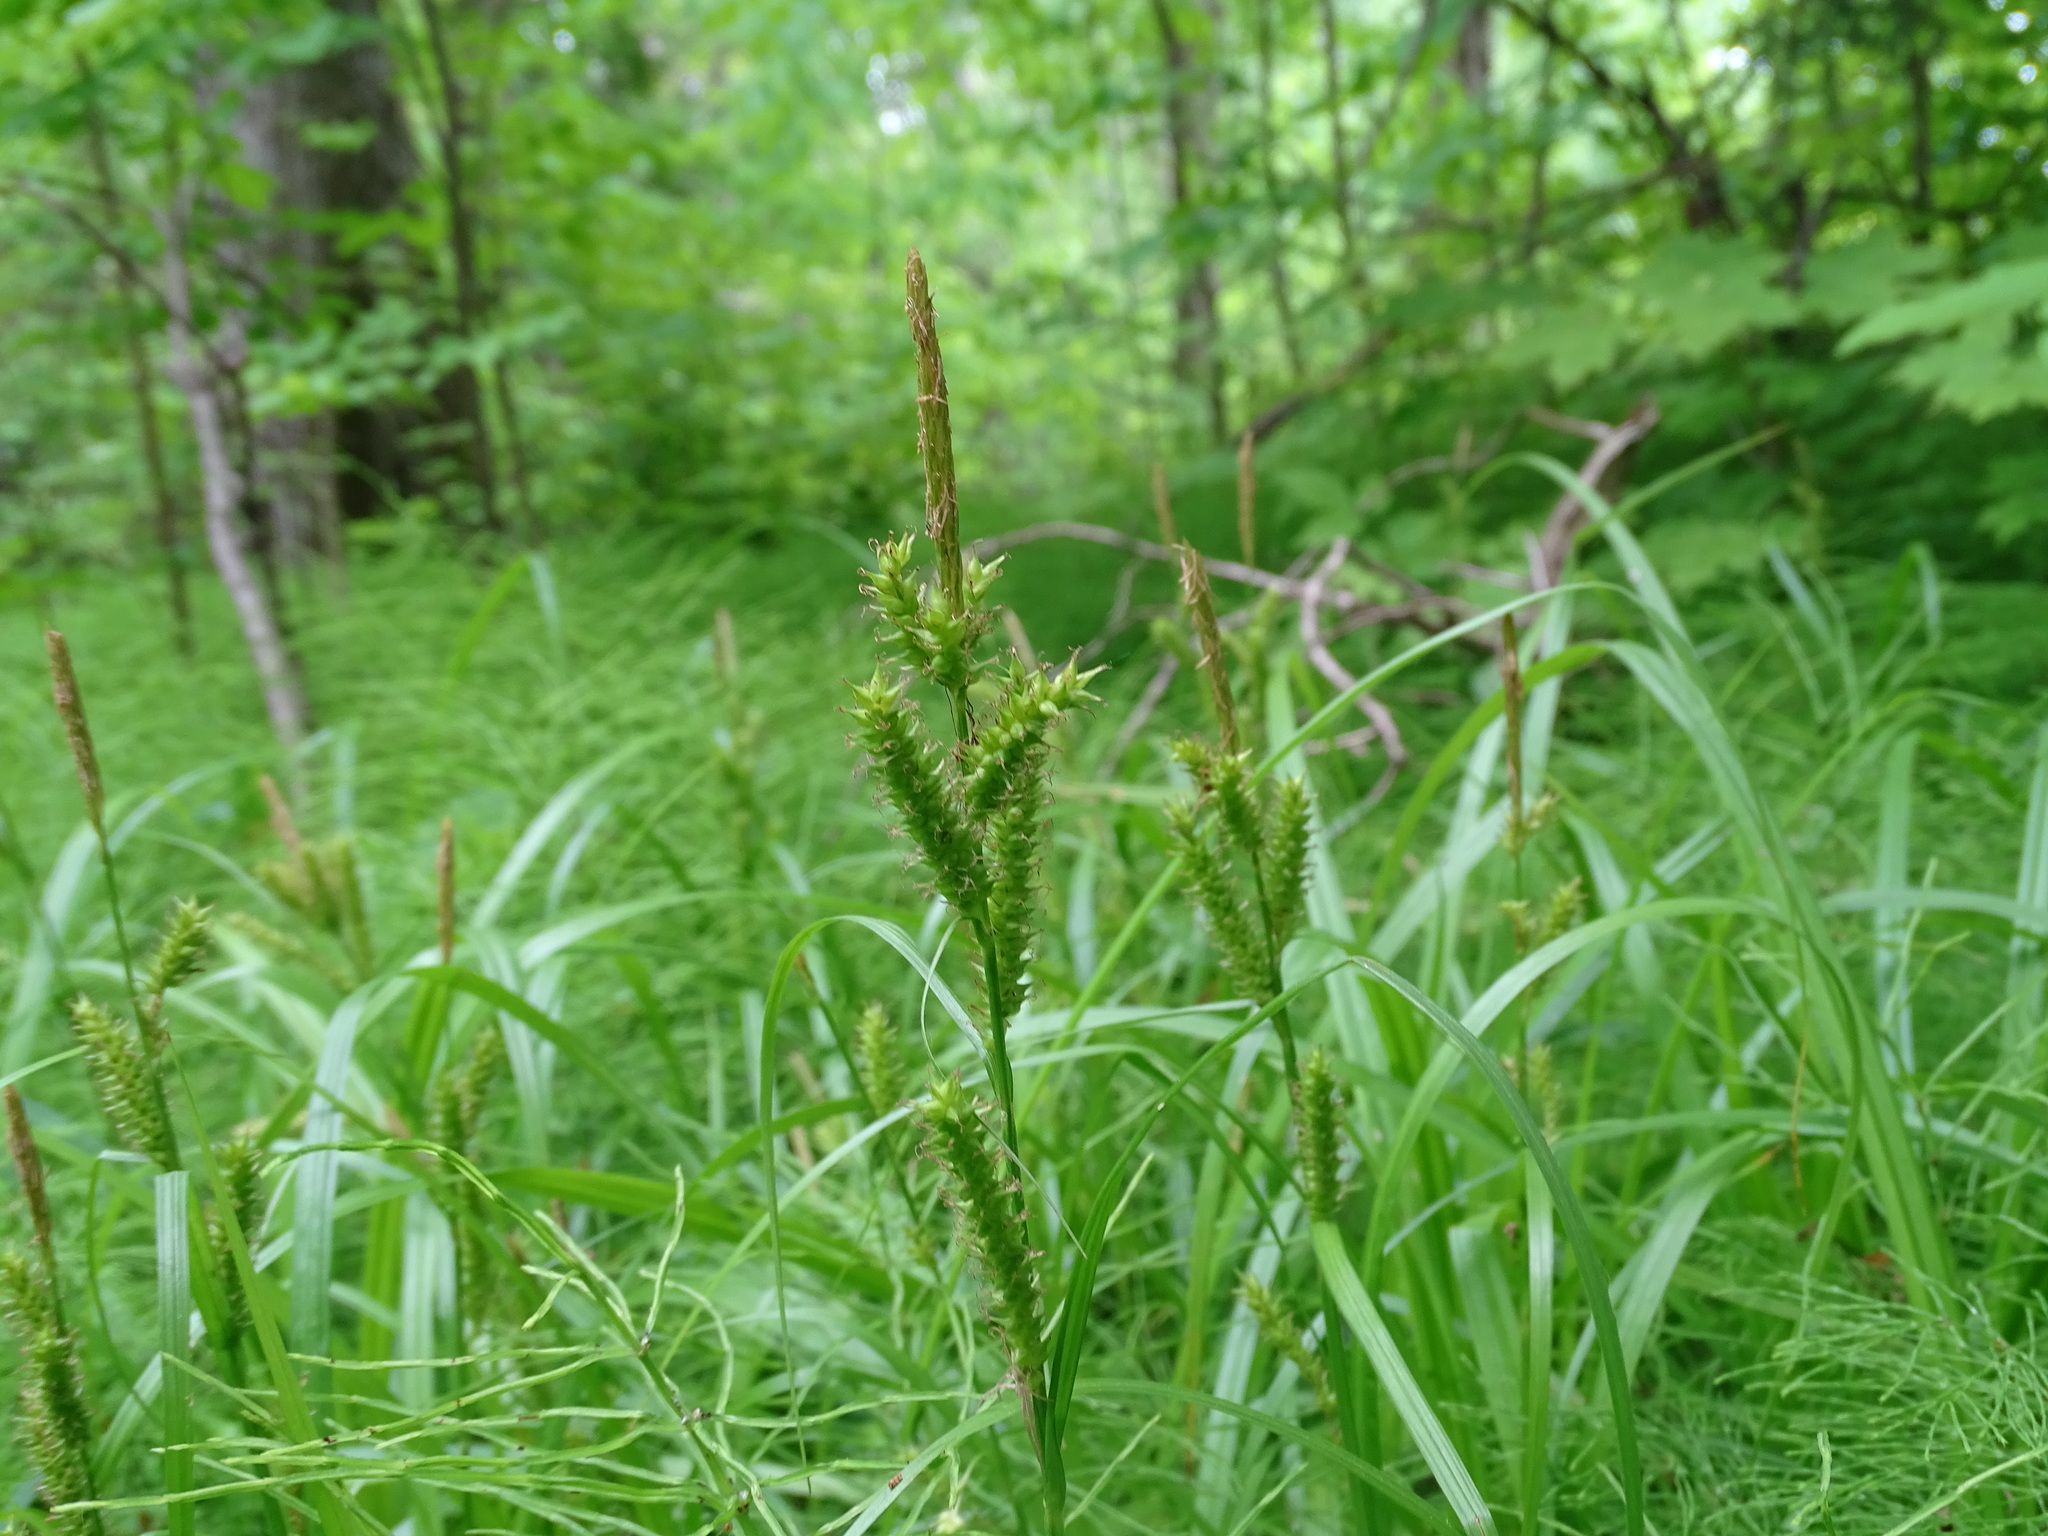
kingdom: Plantae
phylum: Tracheophyta
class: Liliopsida
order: Poales
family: Cyperaceae
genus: Carex
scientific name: Carex scabrata
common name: Eastern rough sedge
